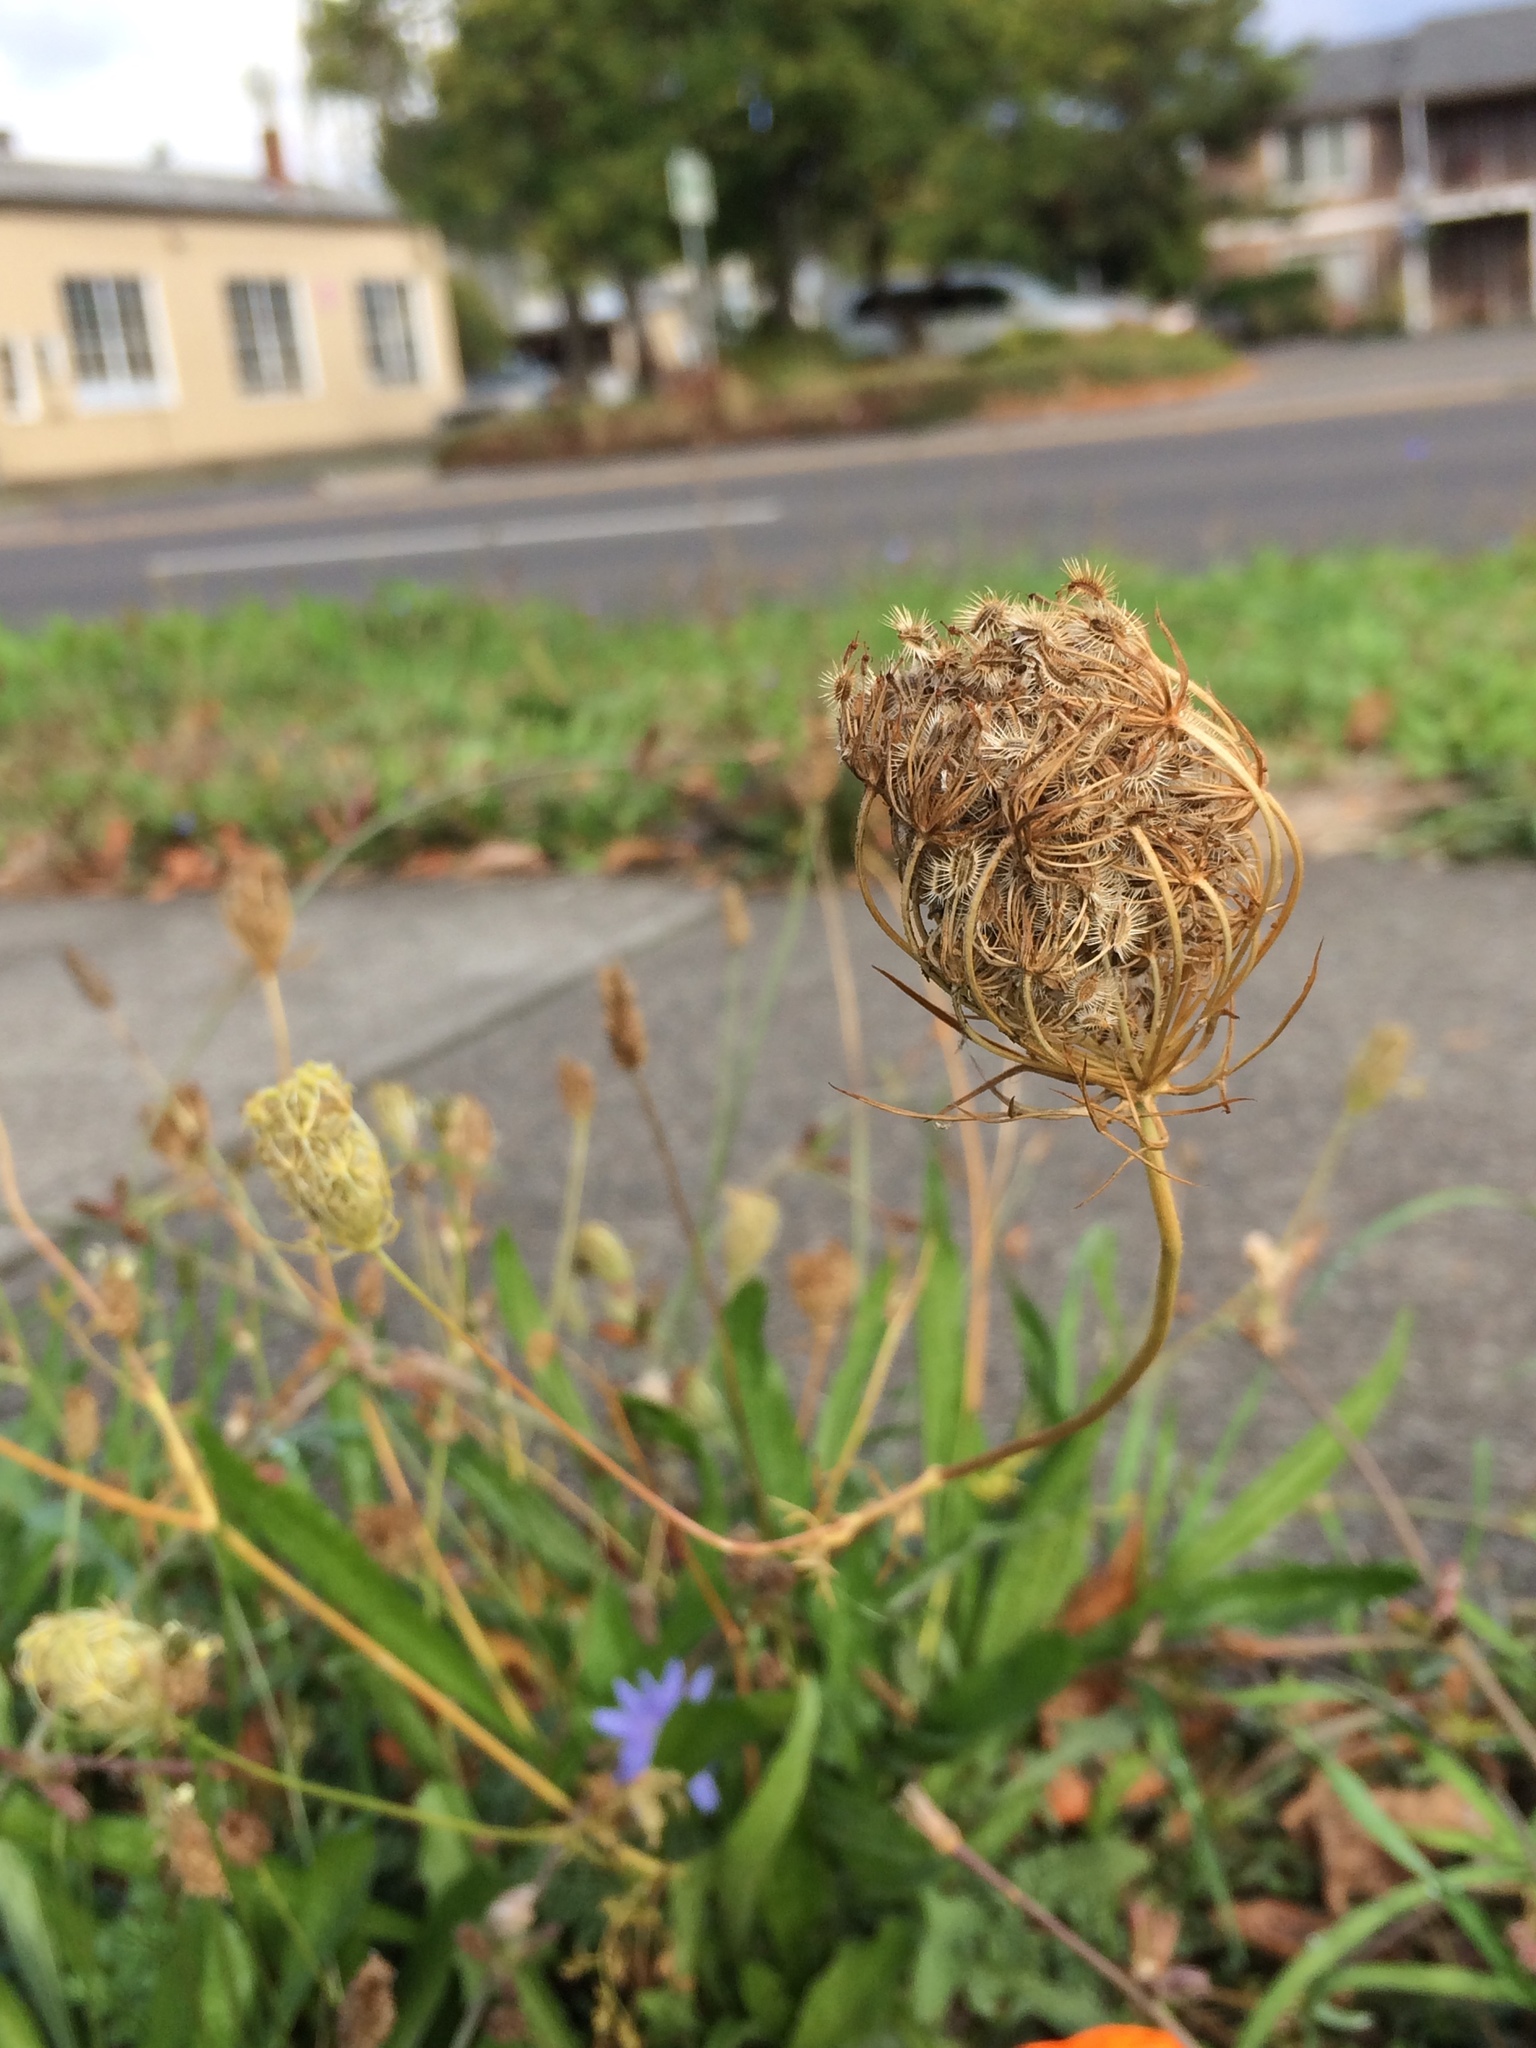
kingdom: Plantae
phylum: Tracheophyta
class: Magnoliopsida
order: Apiales
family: Apiaceae
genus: Daucus
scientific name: Daucus carota
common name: Wild carrot
